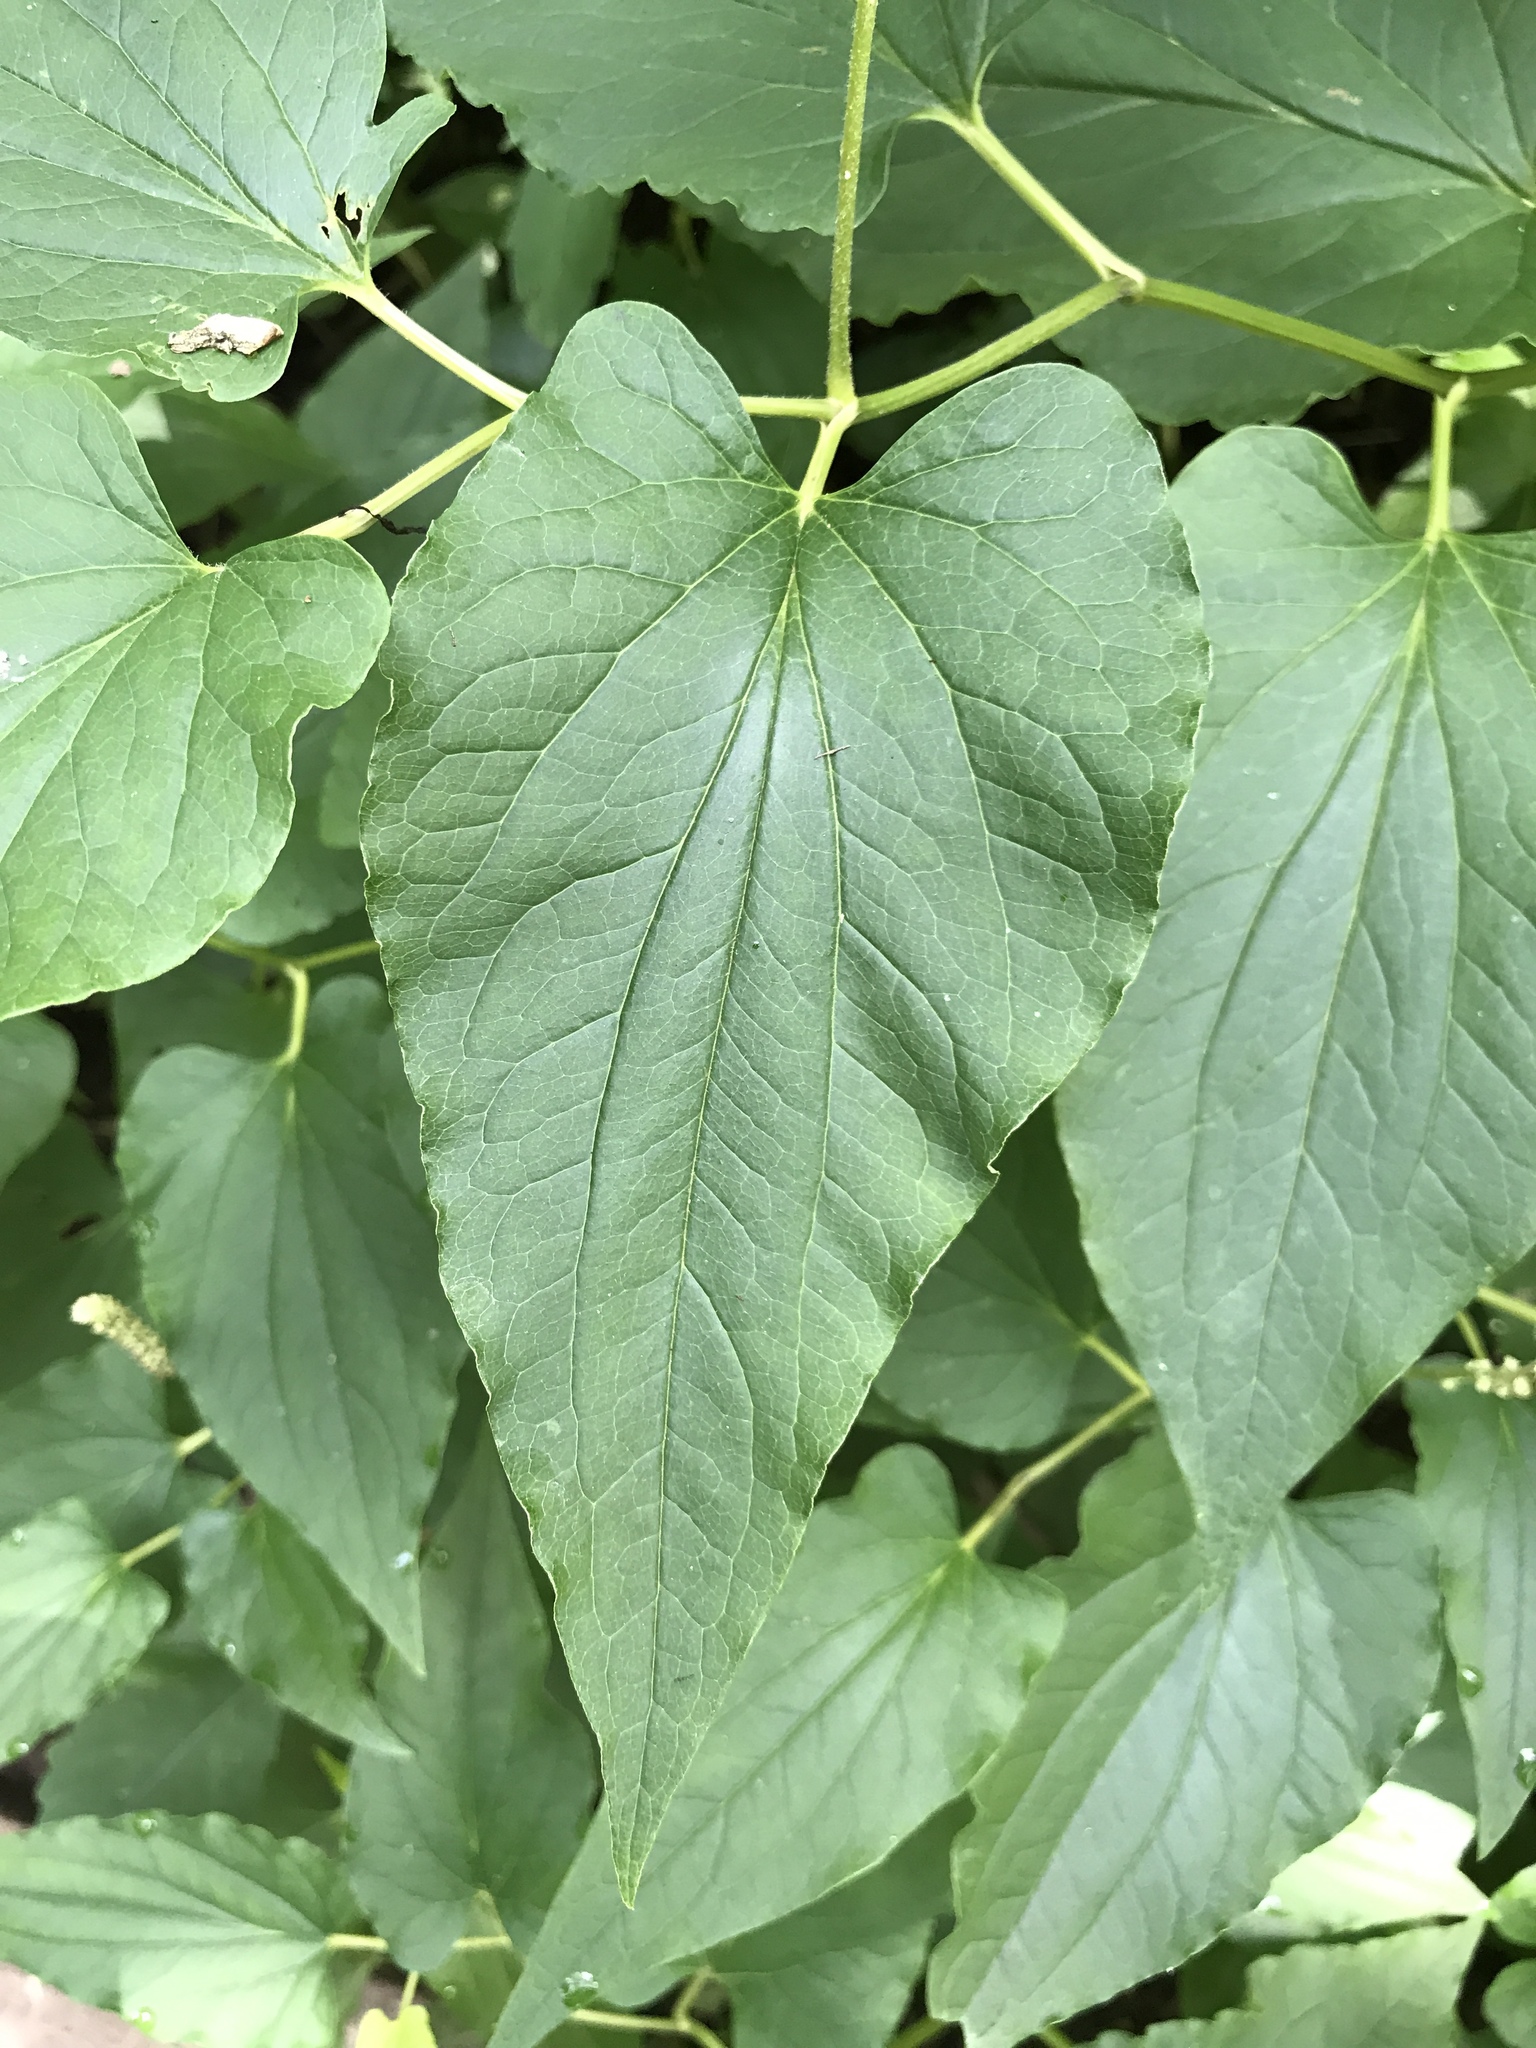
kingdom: Plantae
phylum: Tracheophyta
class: Magnoliopsida
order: Piperales
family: Saururaceae
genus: Saururus
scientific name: Saururus cernuus
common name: Lizard's-tail
